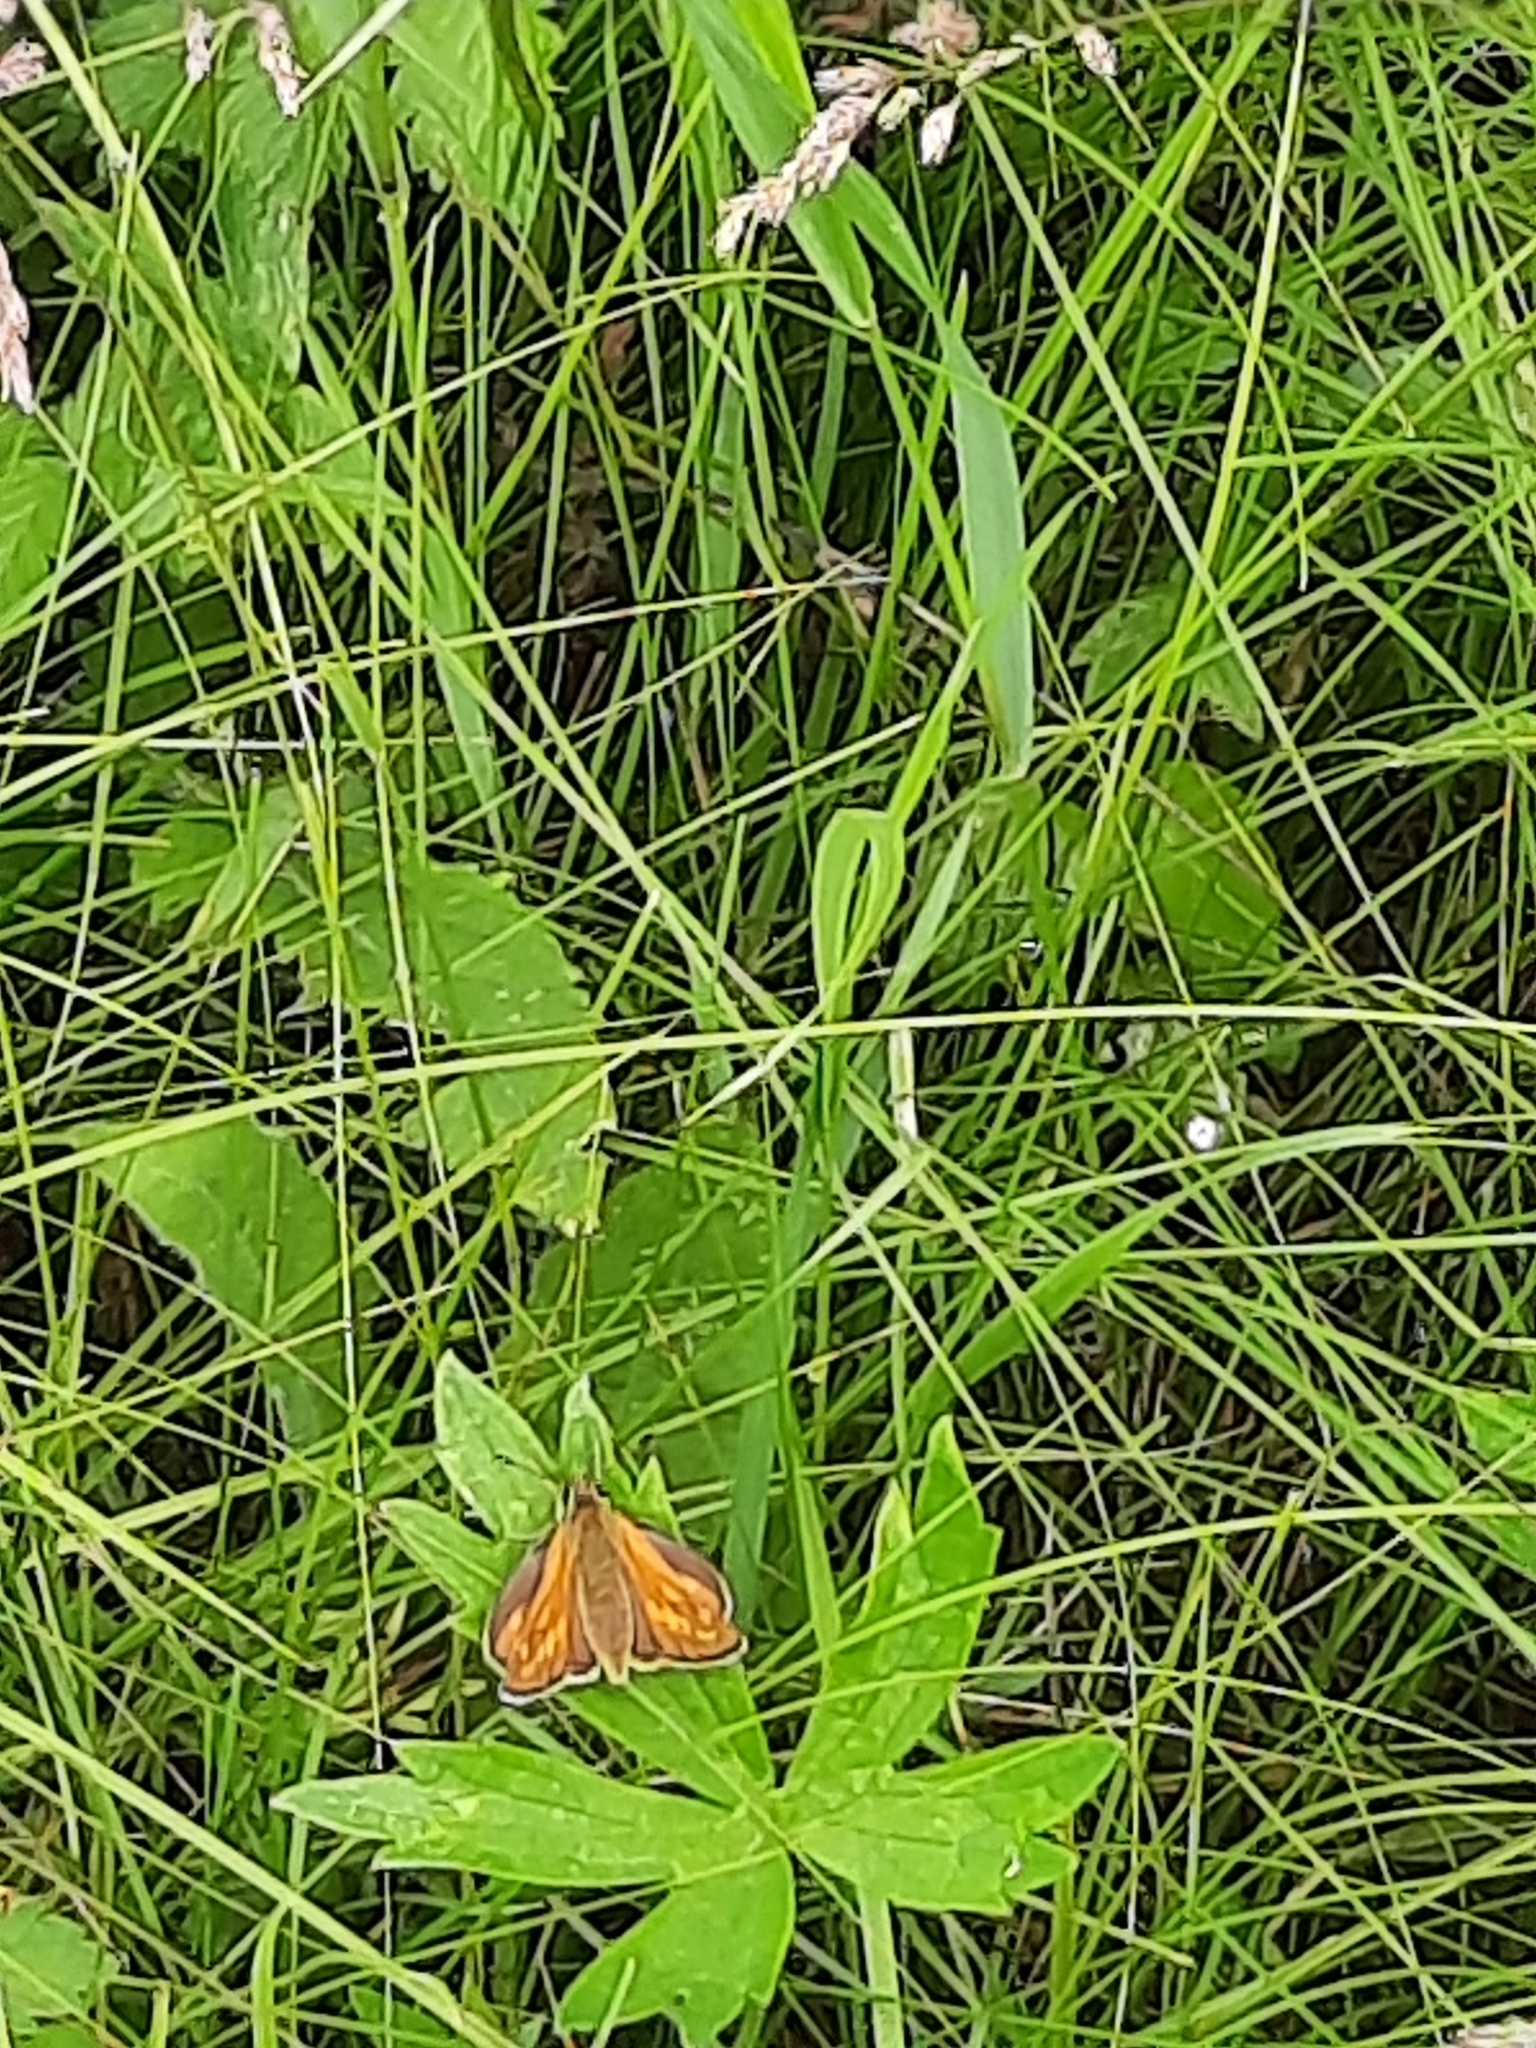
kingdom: Animalia
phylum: Arthropoda
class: Insecta
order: Lepidoptera
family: Hesperiidae
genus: Ochlodes
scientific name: Ochlodes venata
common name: Large skipper
